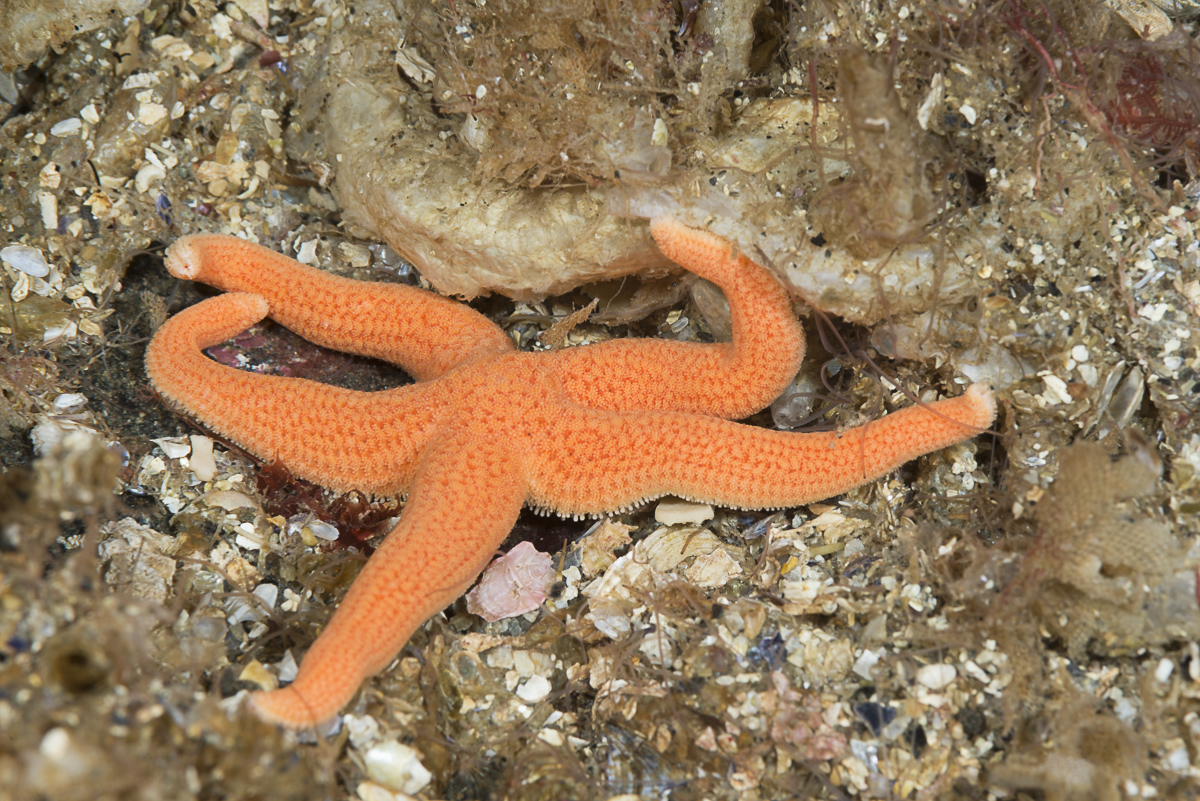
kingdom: Animalia
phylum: Echinodermata
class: Asteroidea
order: Forcipulatida
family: Stichasteridae
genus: Stichastrella
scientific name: Stichastrella rosea
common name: Rosy starfish
